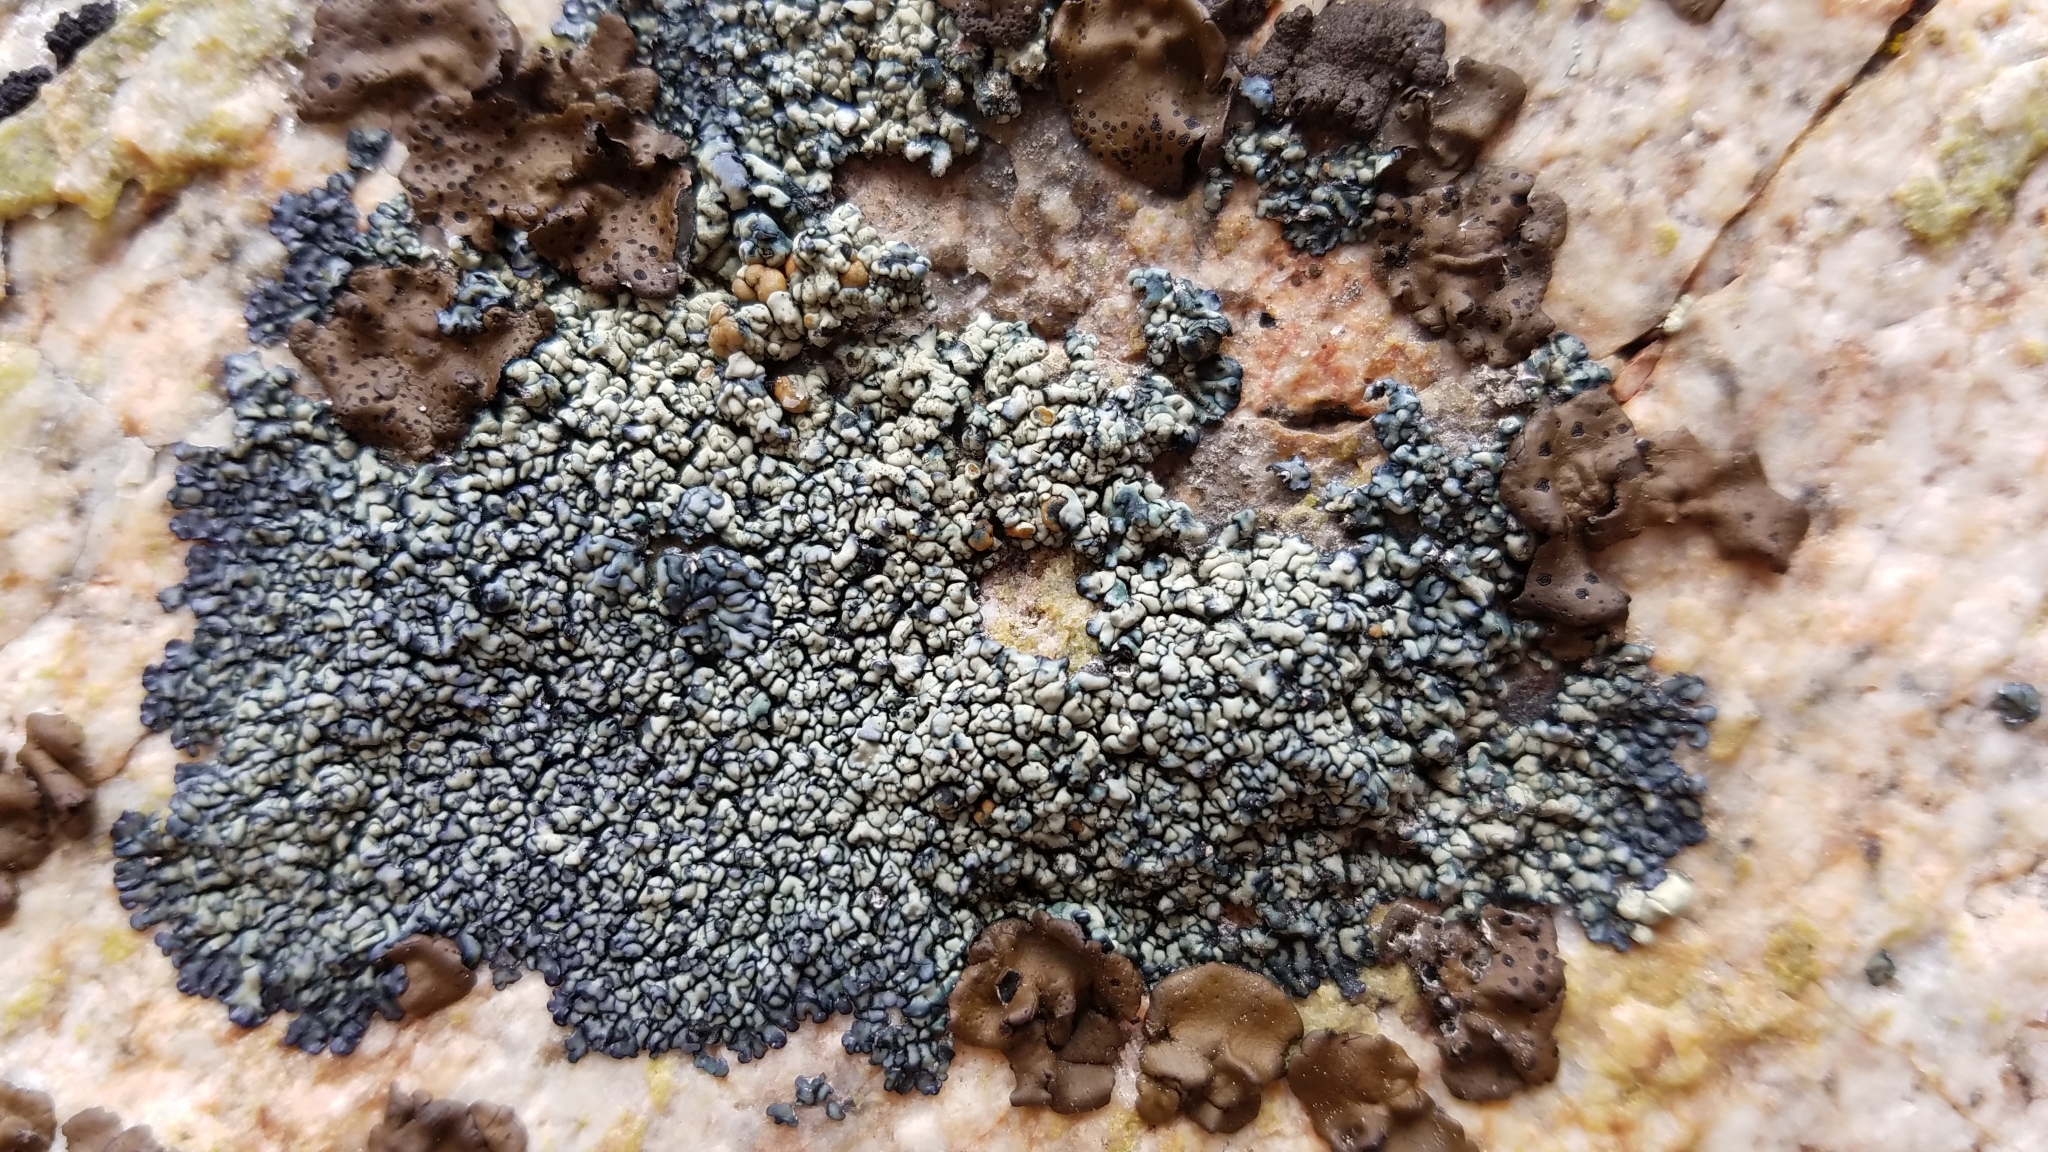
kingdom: Fungi
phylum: Ascomycota
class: Lecanoromycetes
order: Lecanorales
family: Lecanoraceae
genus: Lecanora
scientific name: Lecanora semitensis
